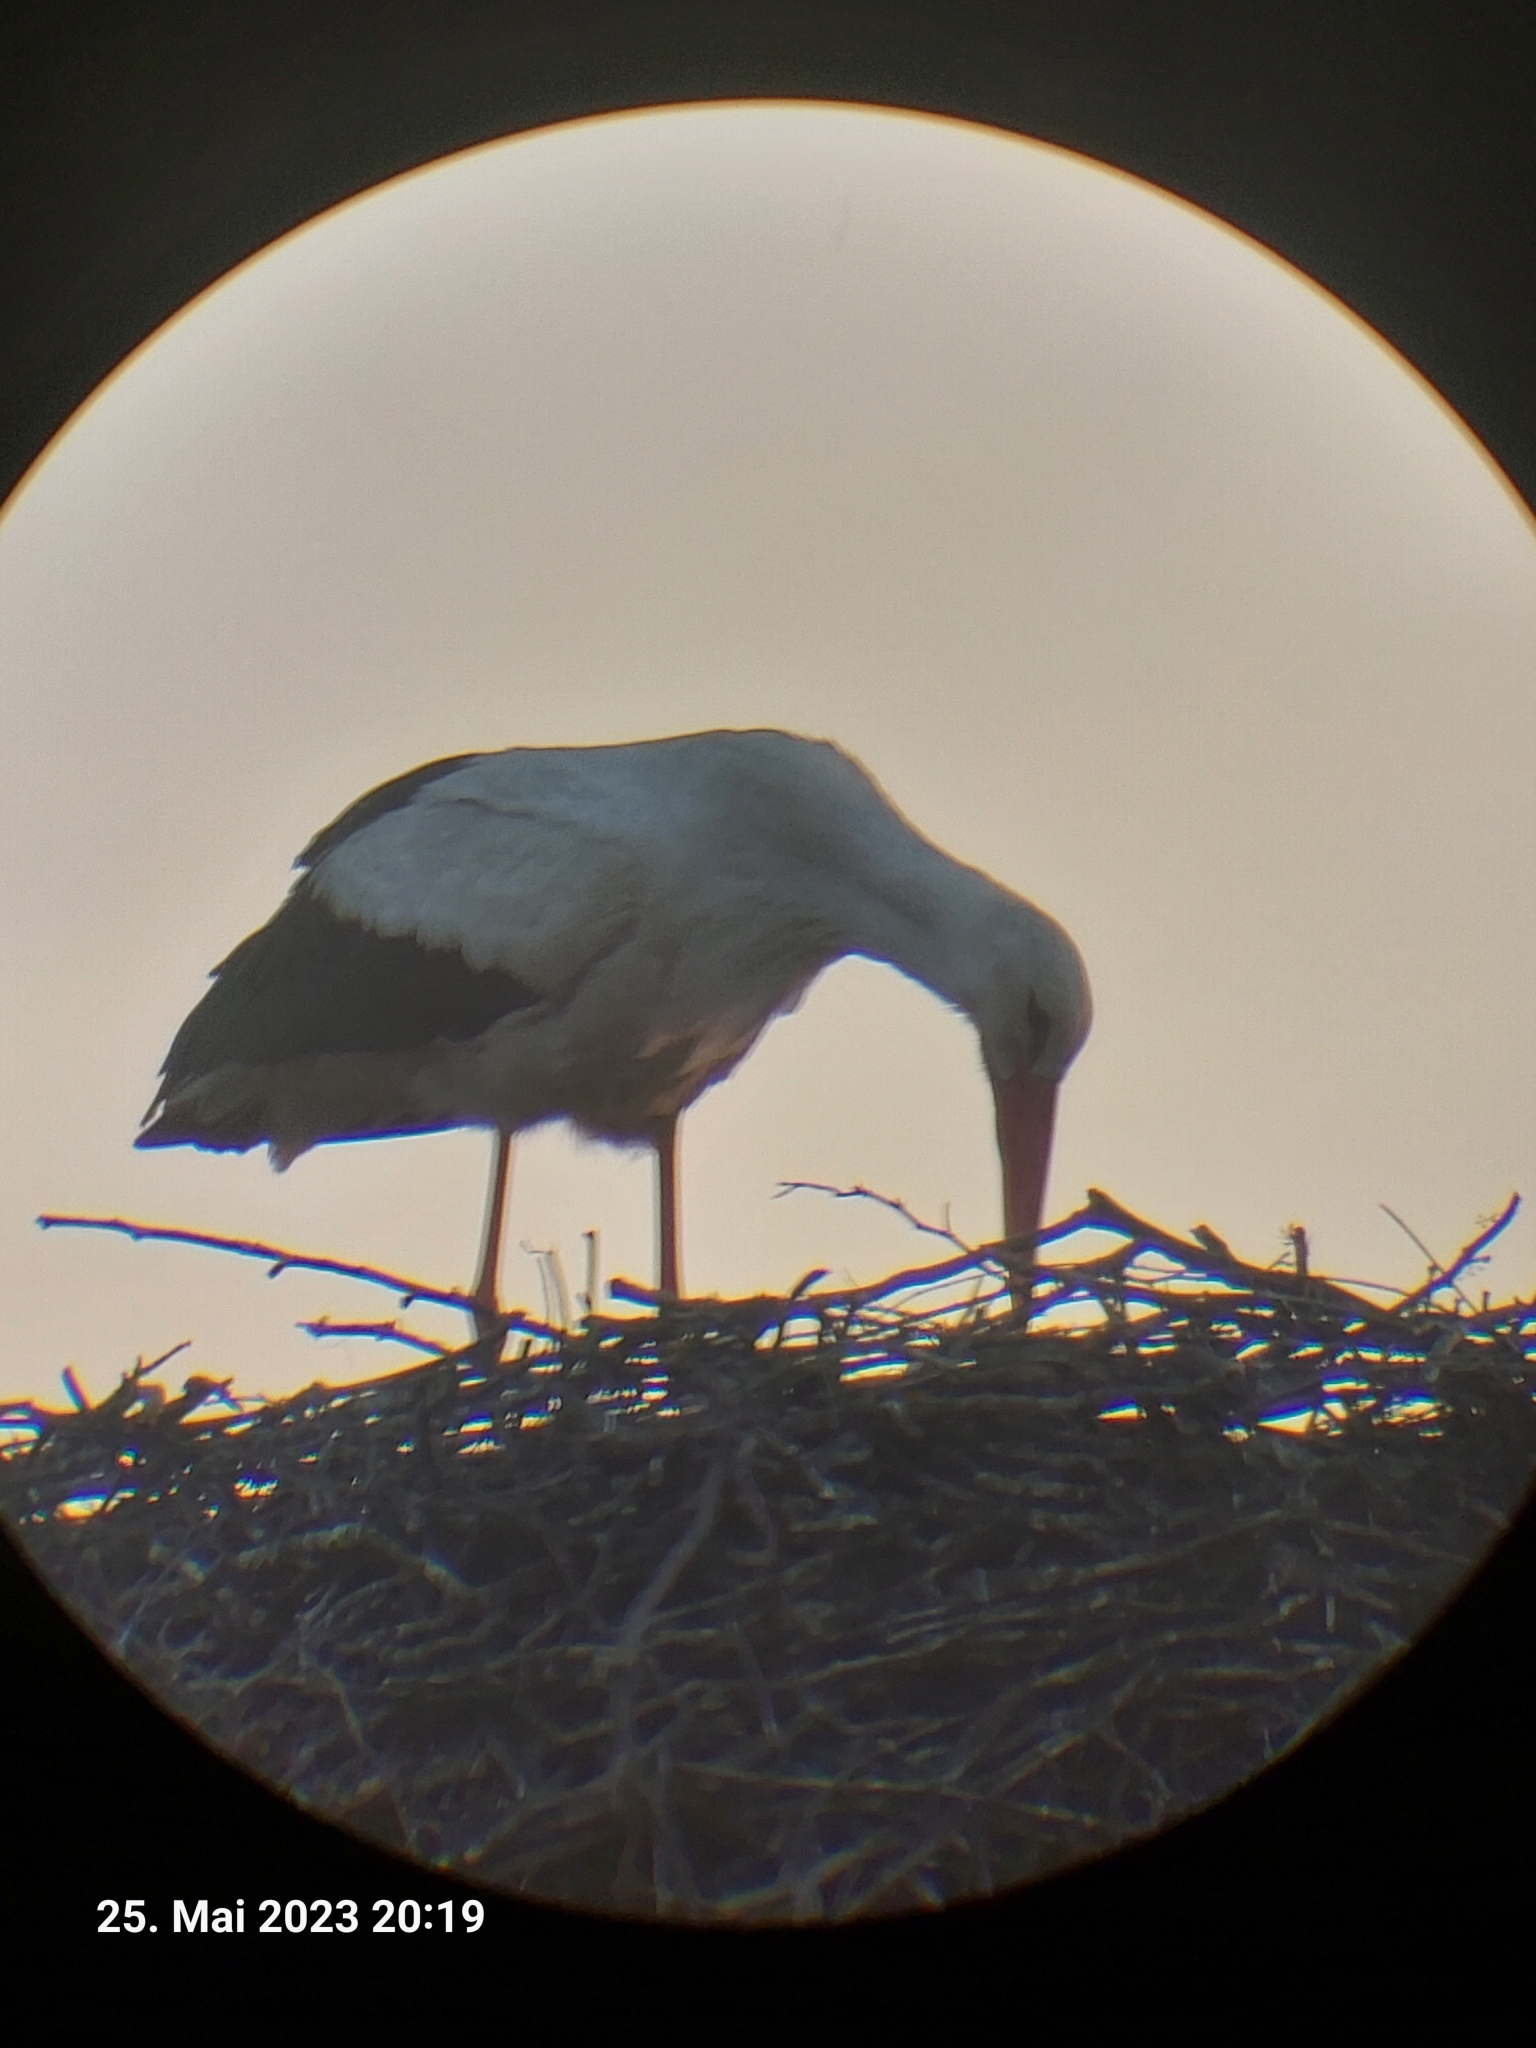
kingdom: Animalia
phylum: Chordata
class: Aves
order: Ciconiiformes
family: Ciconiidae
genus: Ciconia
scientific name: Ciconia ciconia
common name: White stork
